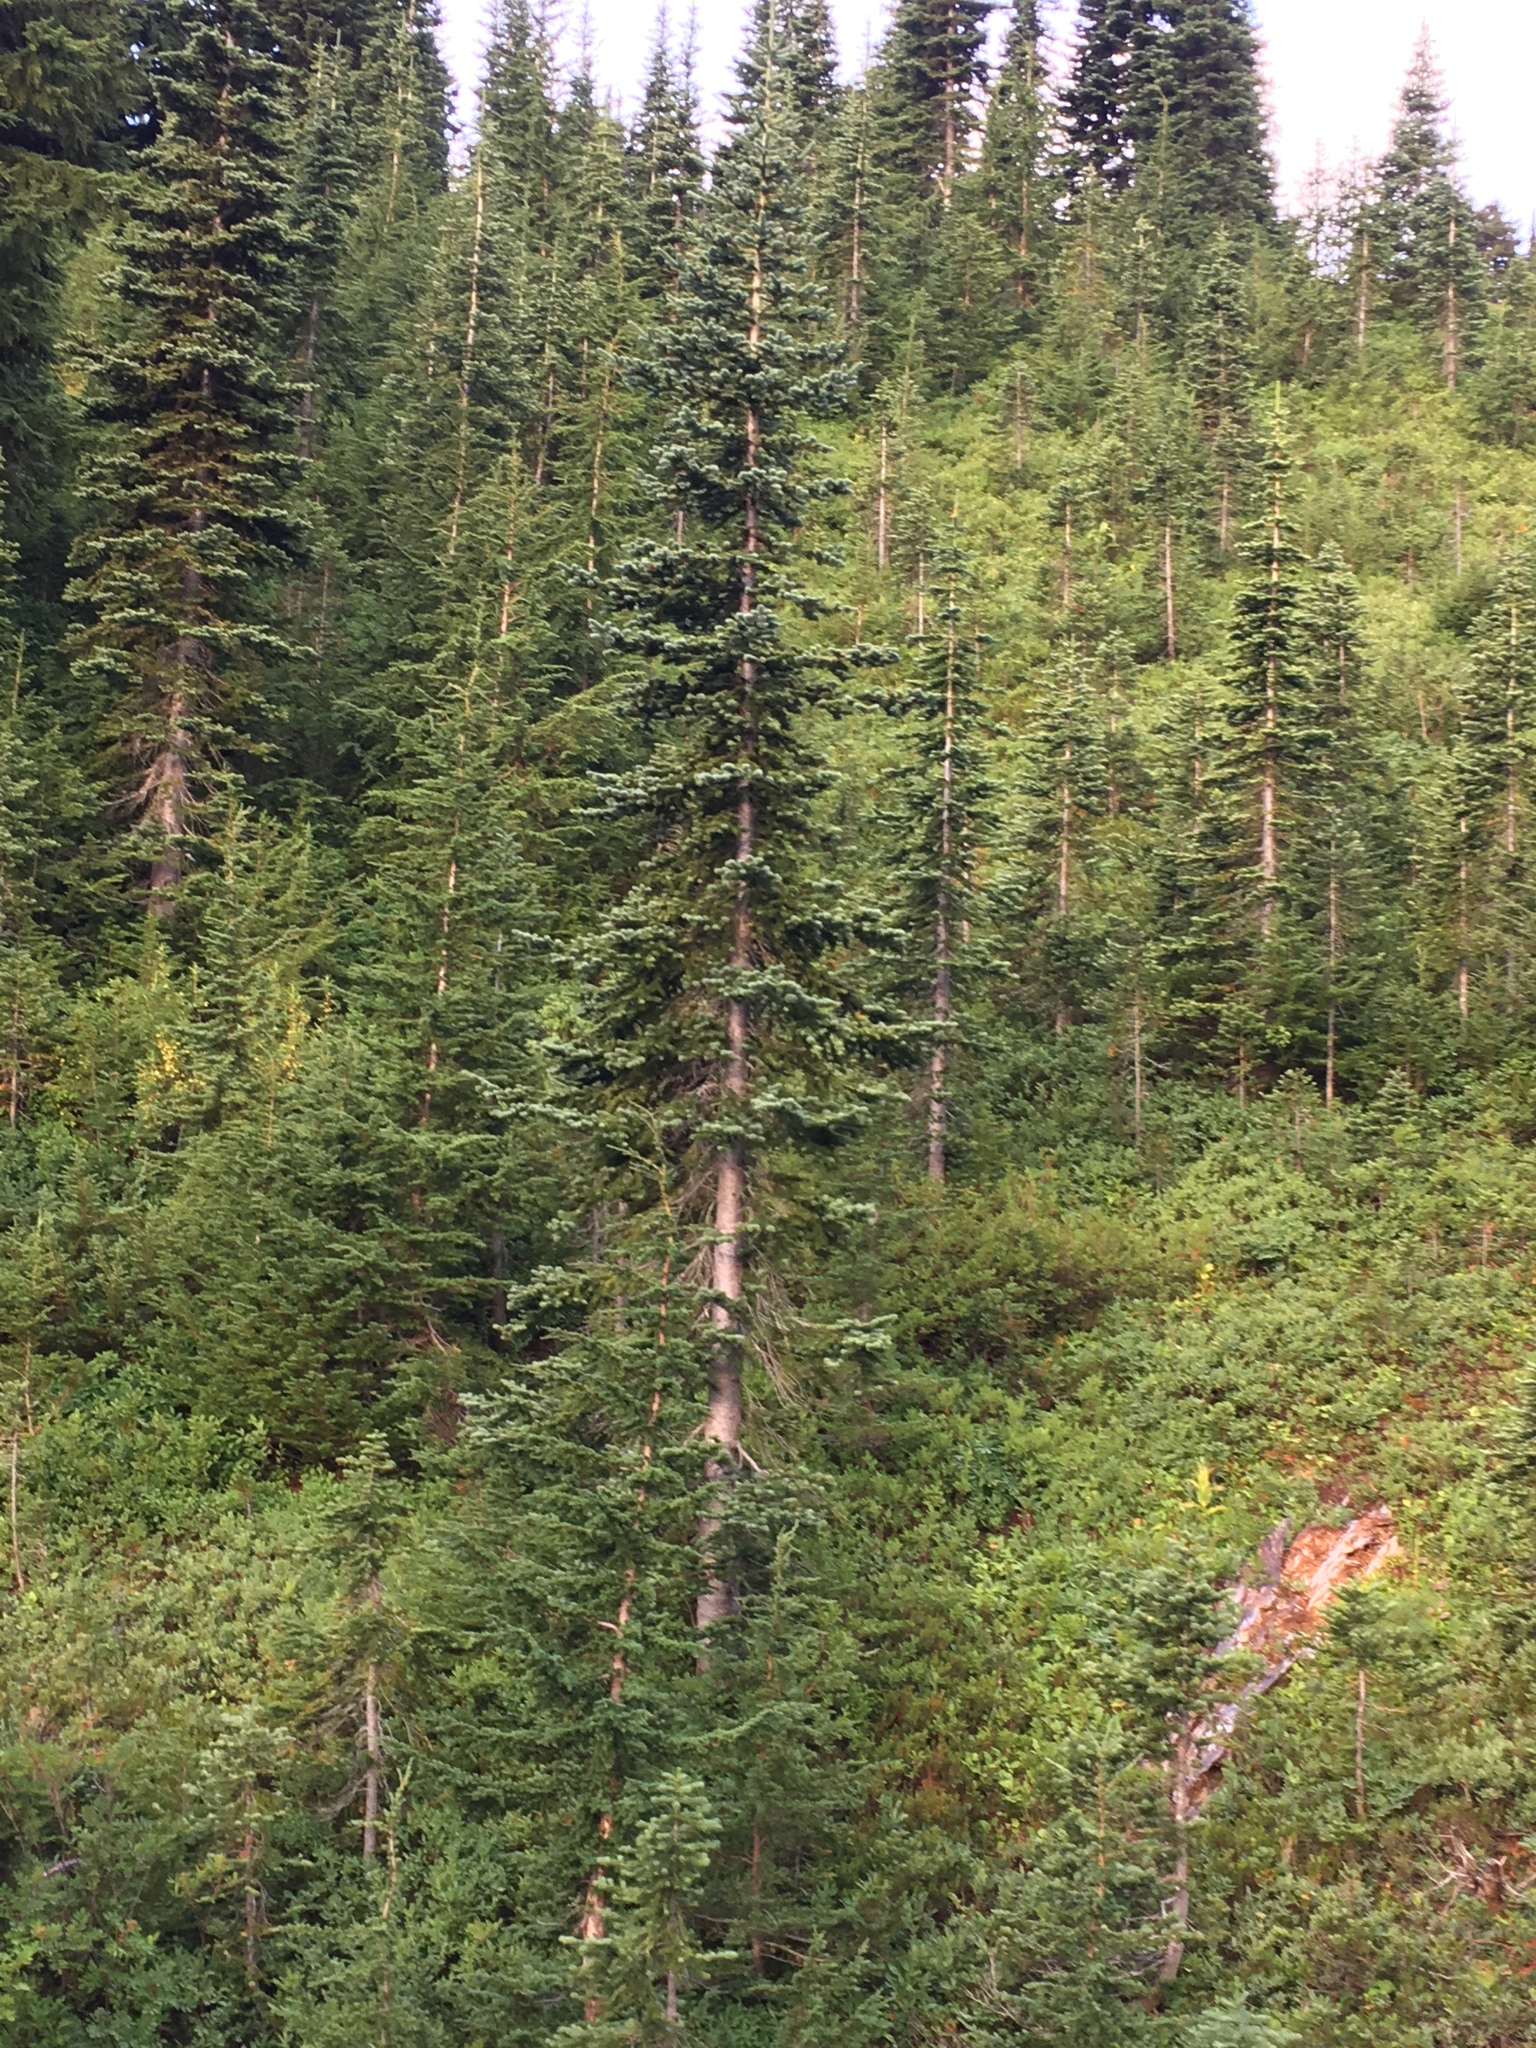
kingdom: Plantae
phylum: Tracheophyta
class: Pinopsida
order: Pinales
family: Pinaceae
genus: Abies
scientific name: Abies lasiocarpa
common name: Subalpine fir
